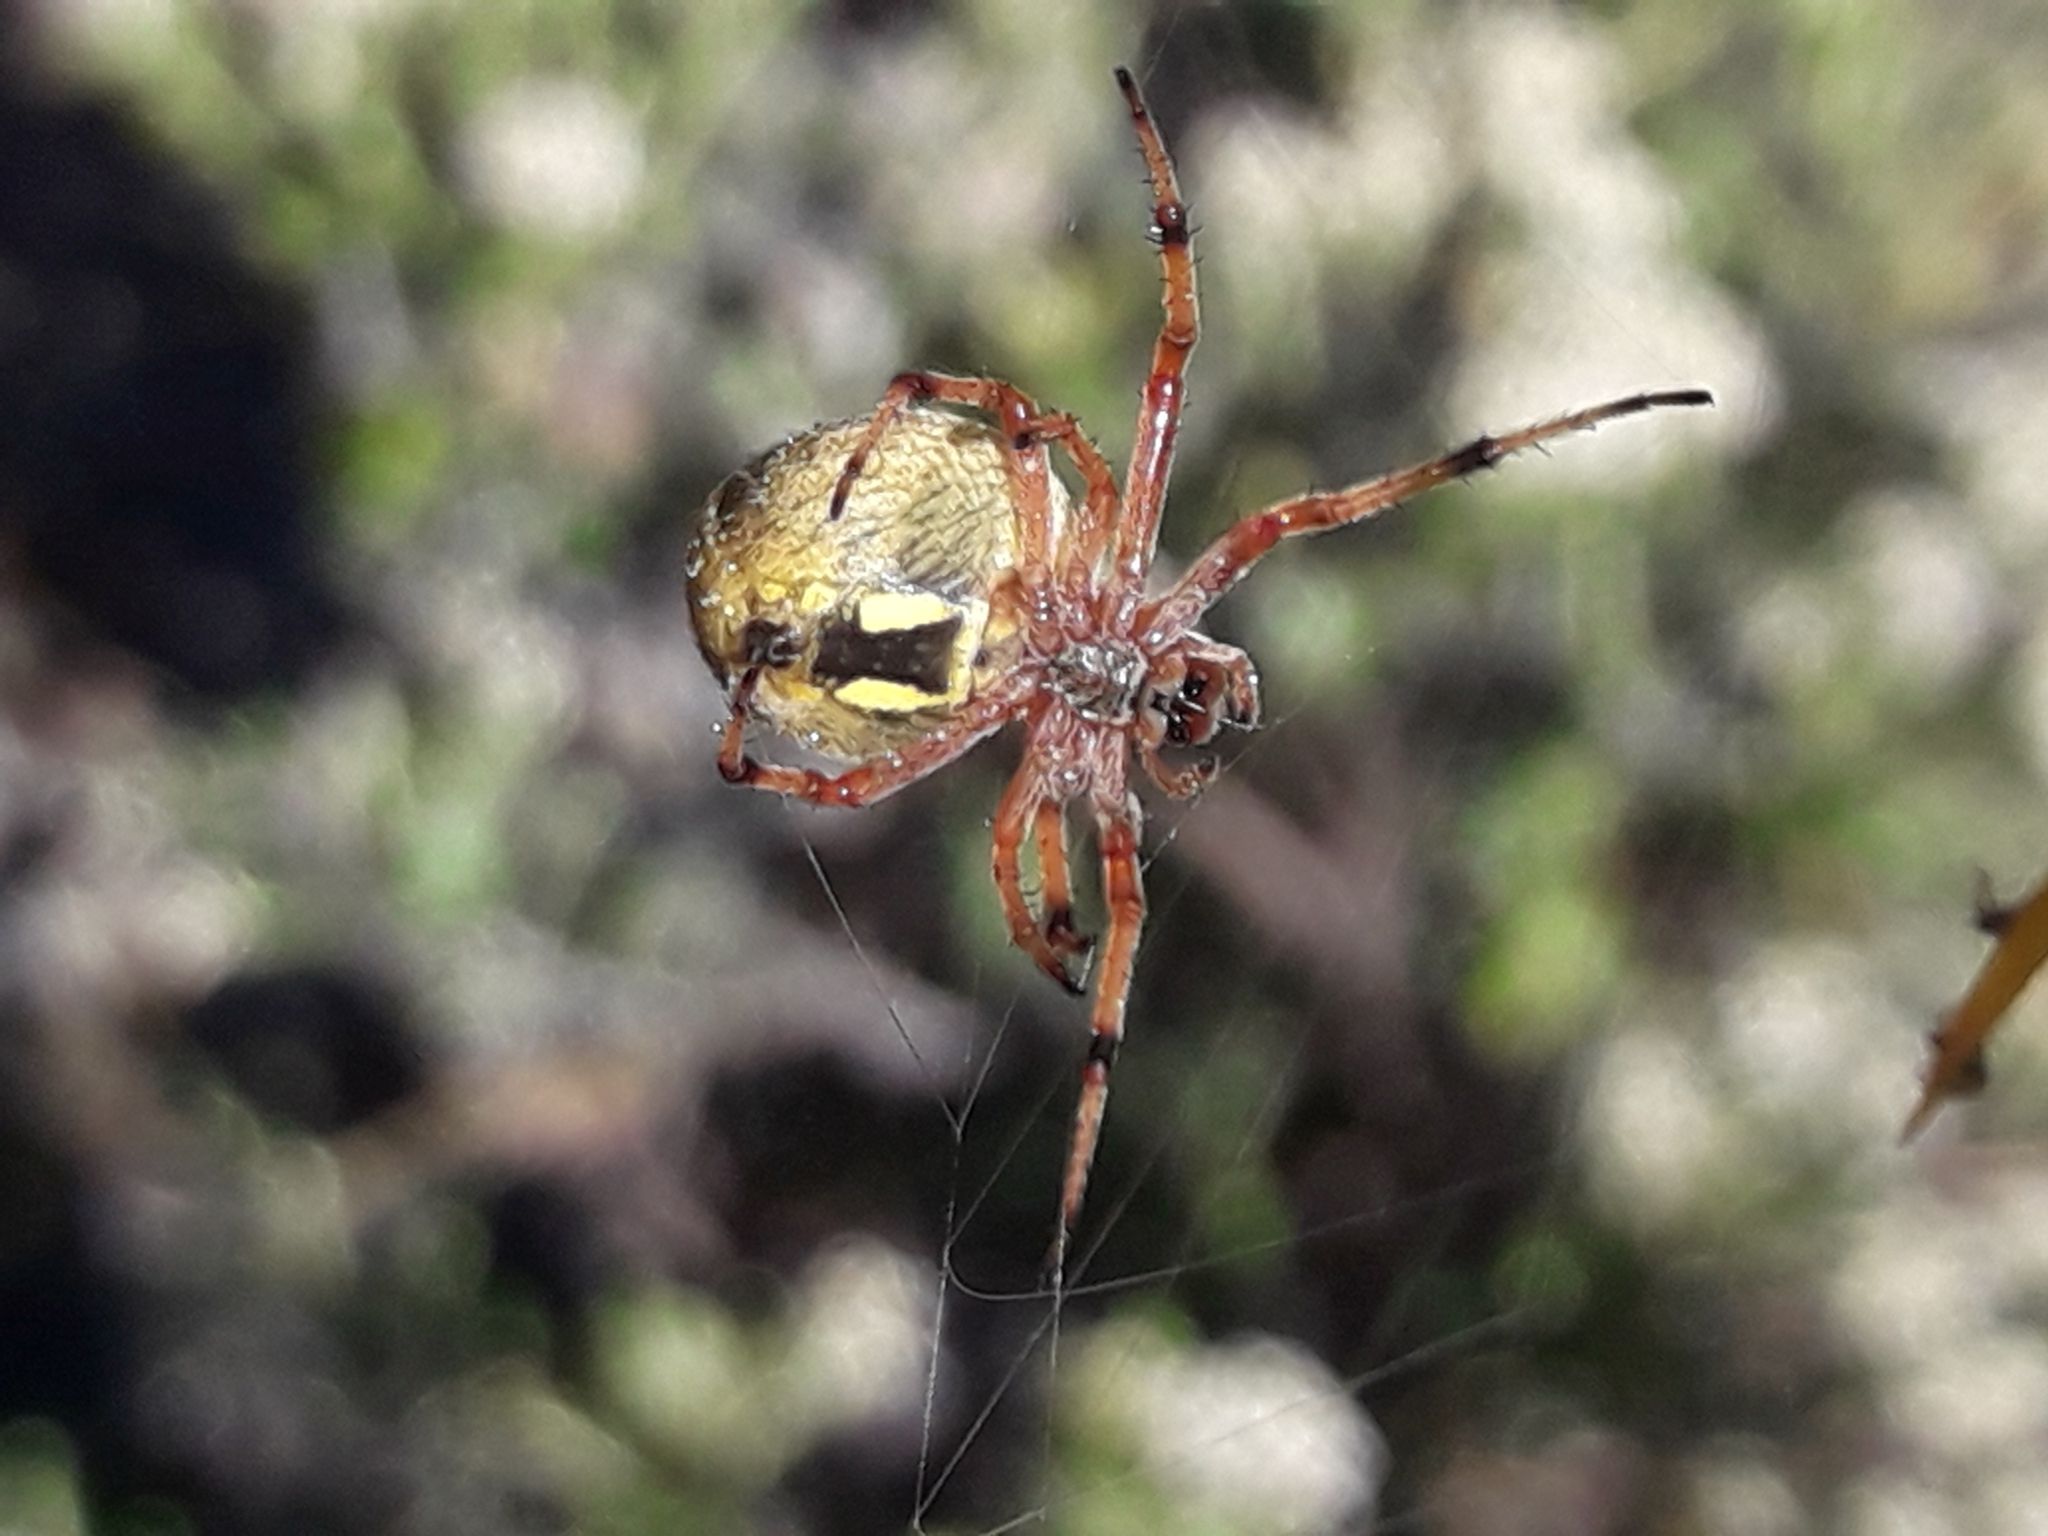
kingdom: Animalia
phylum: Arthropoda
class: Arachnida
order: Araneae
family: Araneidae
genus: Salsa
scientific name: Salsa fuliginata
